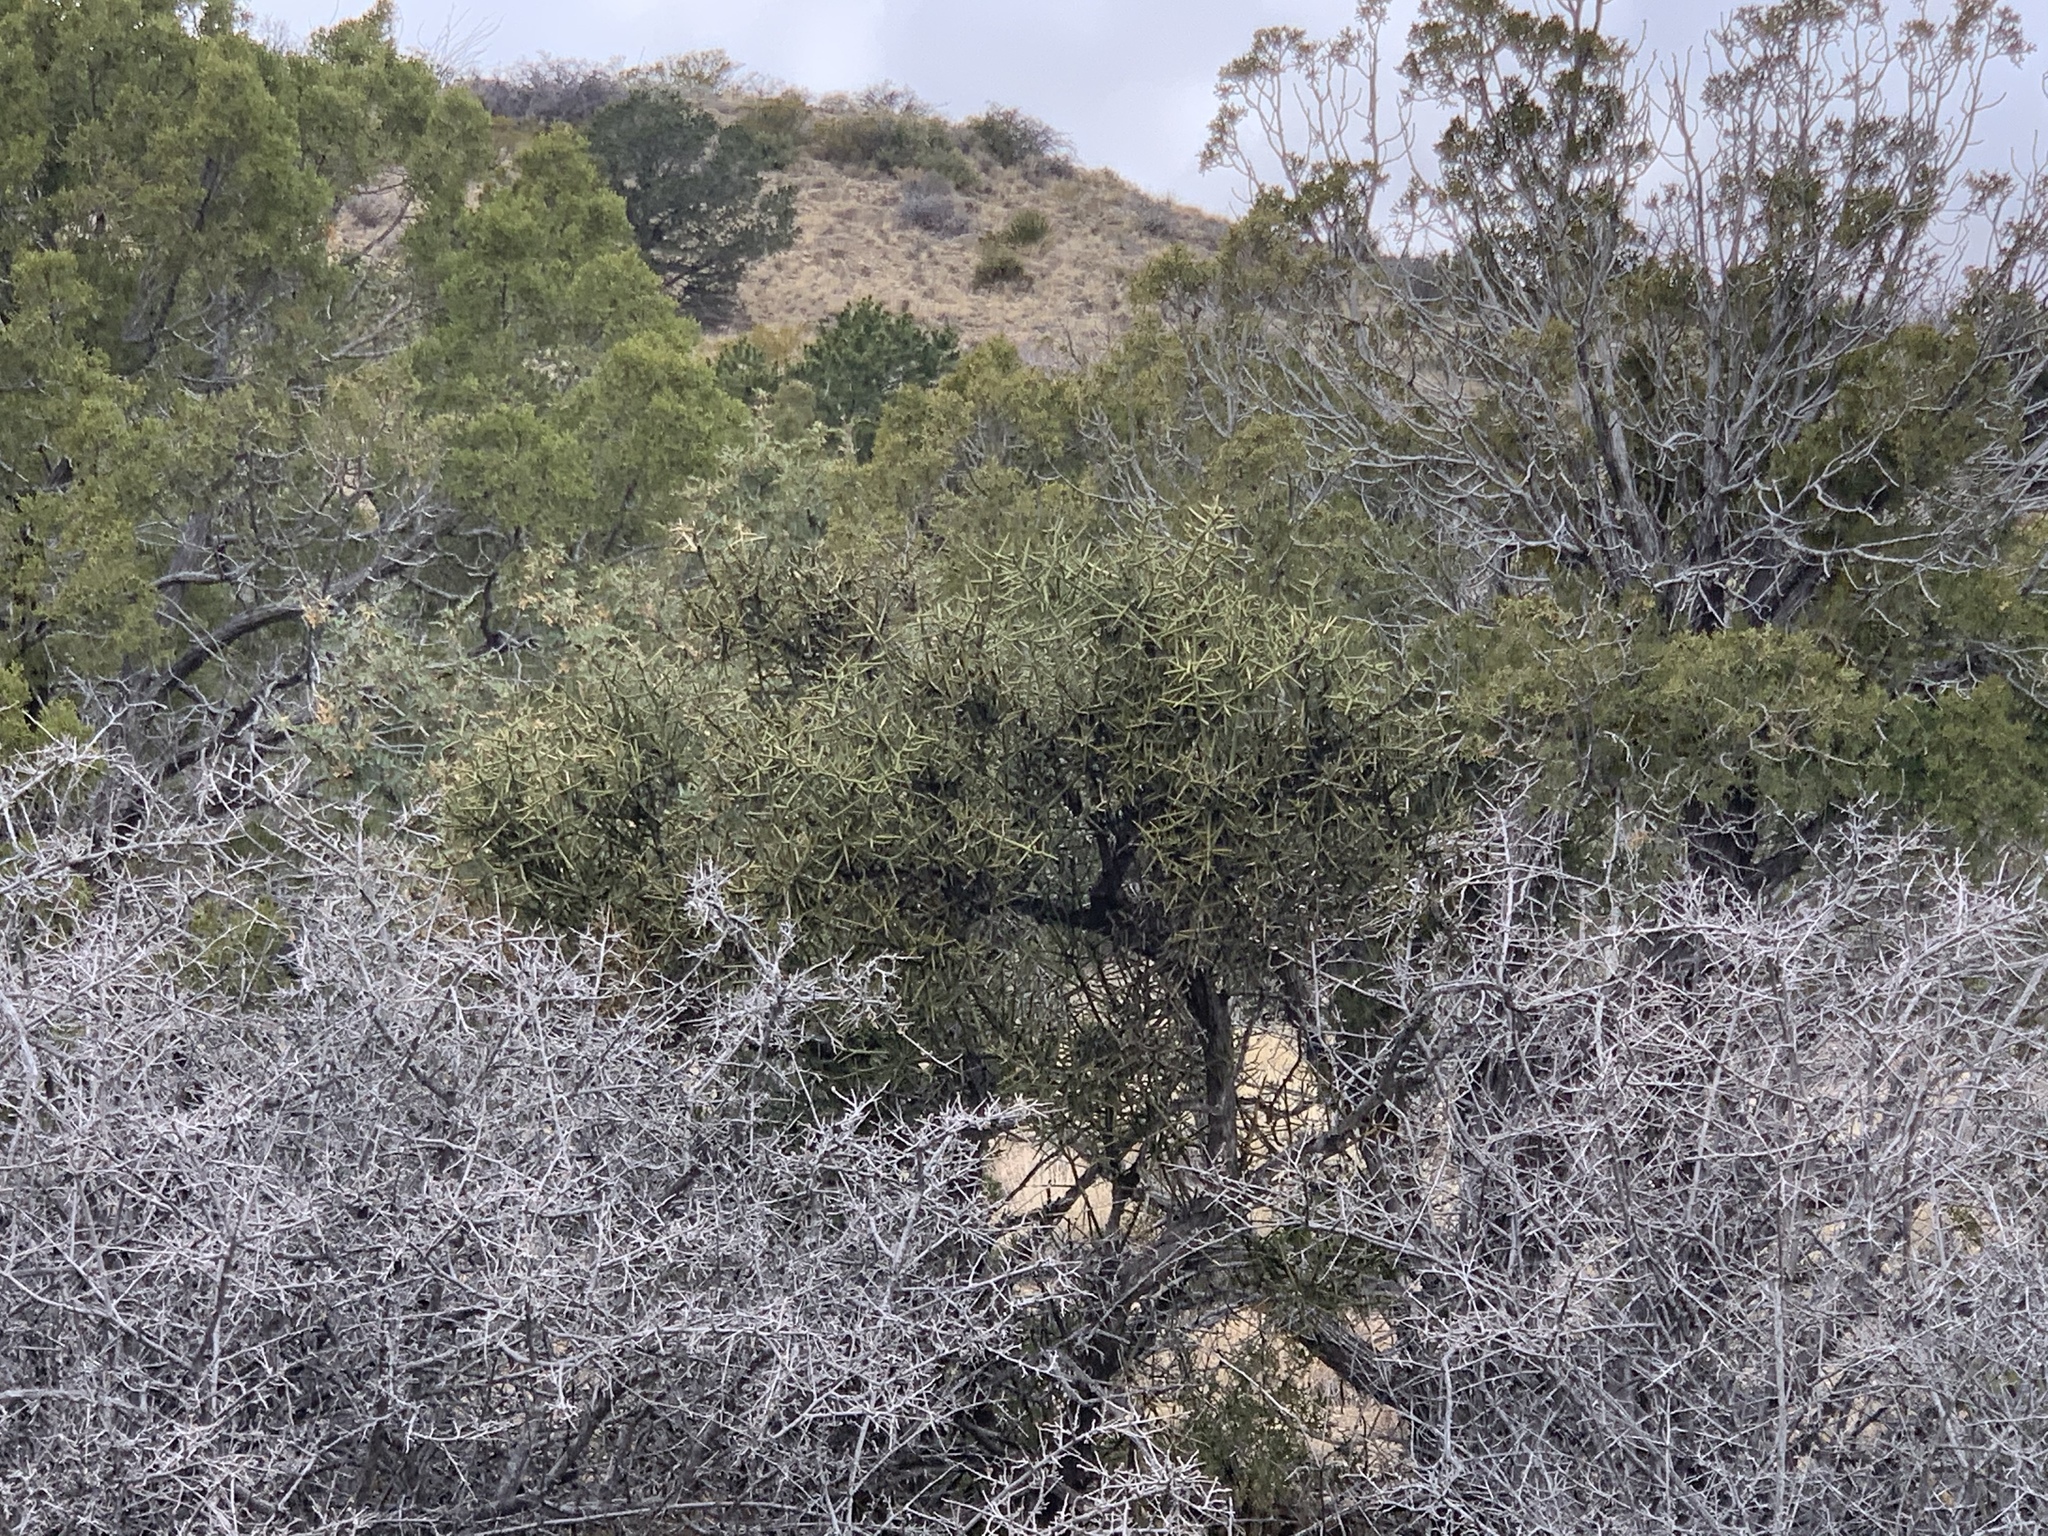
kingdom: Plantae
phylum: Tracheophyta
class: Magnoliopsida
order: Brassicales
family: Koeberliniaceae
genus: Koeberlinia
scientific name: Koeberlinia spinosa
